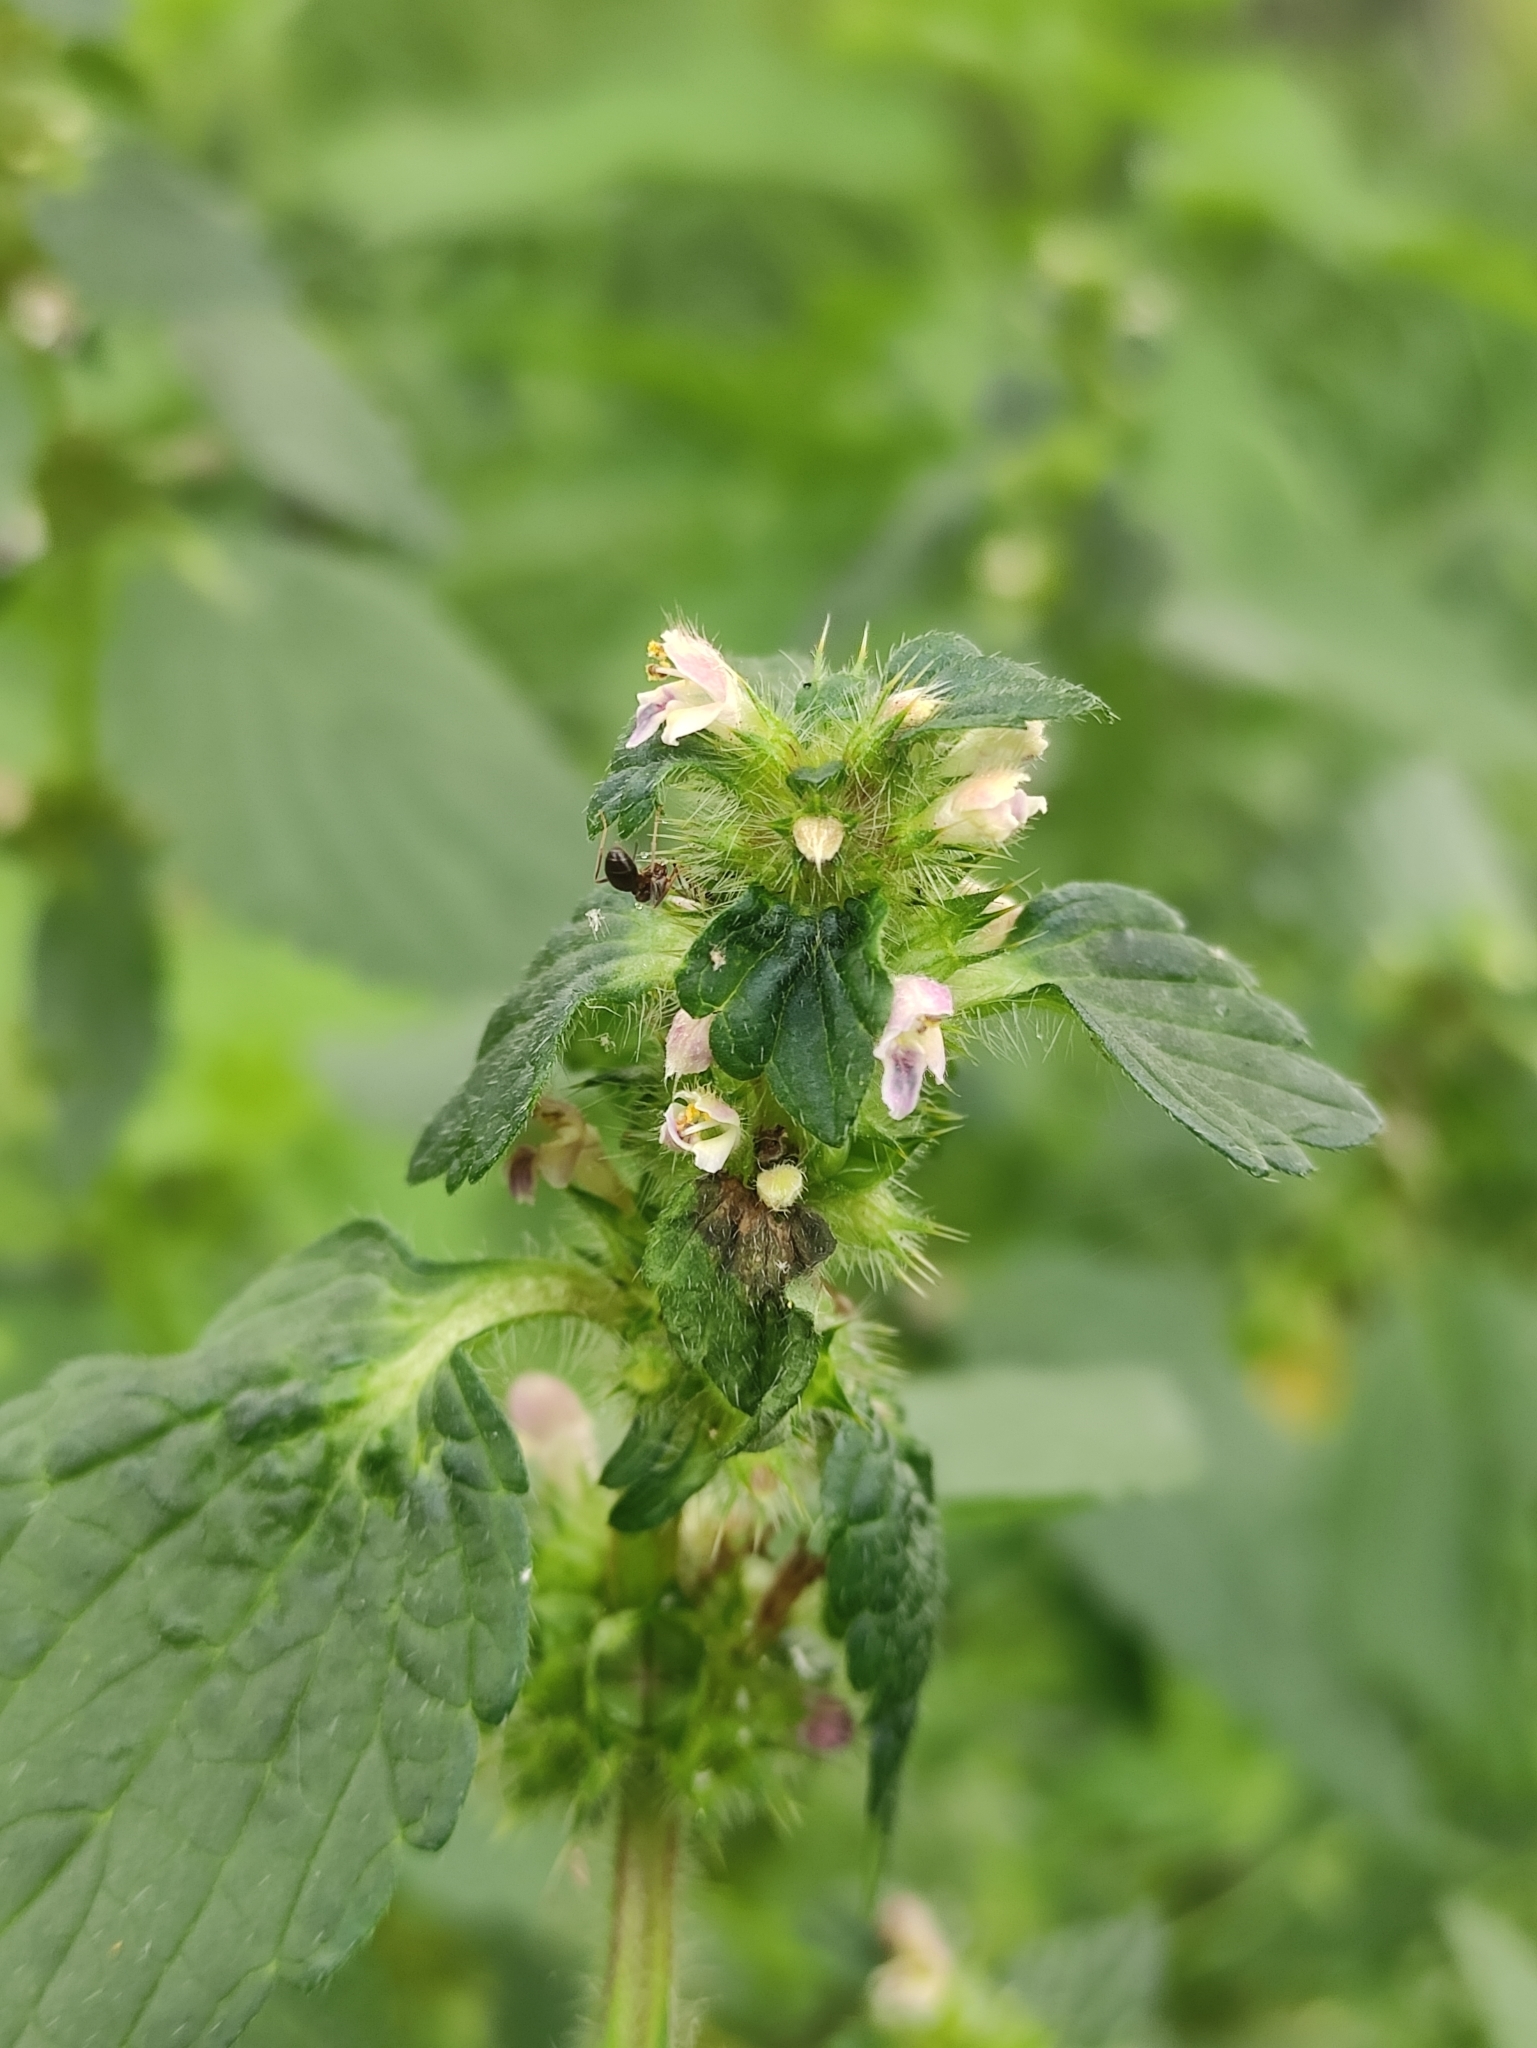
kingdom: Plantae
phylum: Tracheophyta
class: Magnoliopsida
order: Lamiales
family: Lamiaceae
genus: Galeopsis
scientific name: Galeopsis bifida
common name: Bifid hemp-nettle
